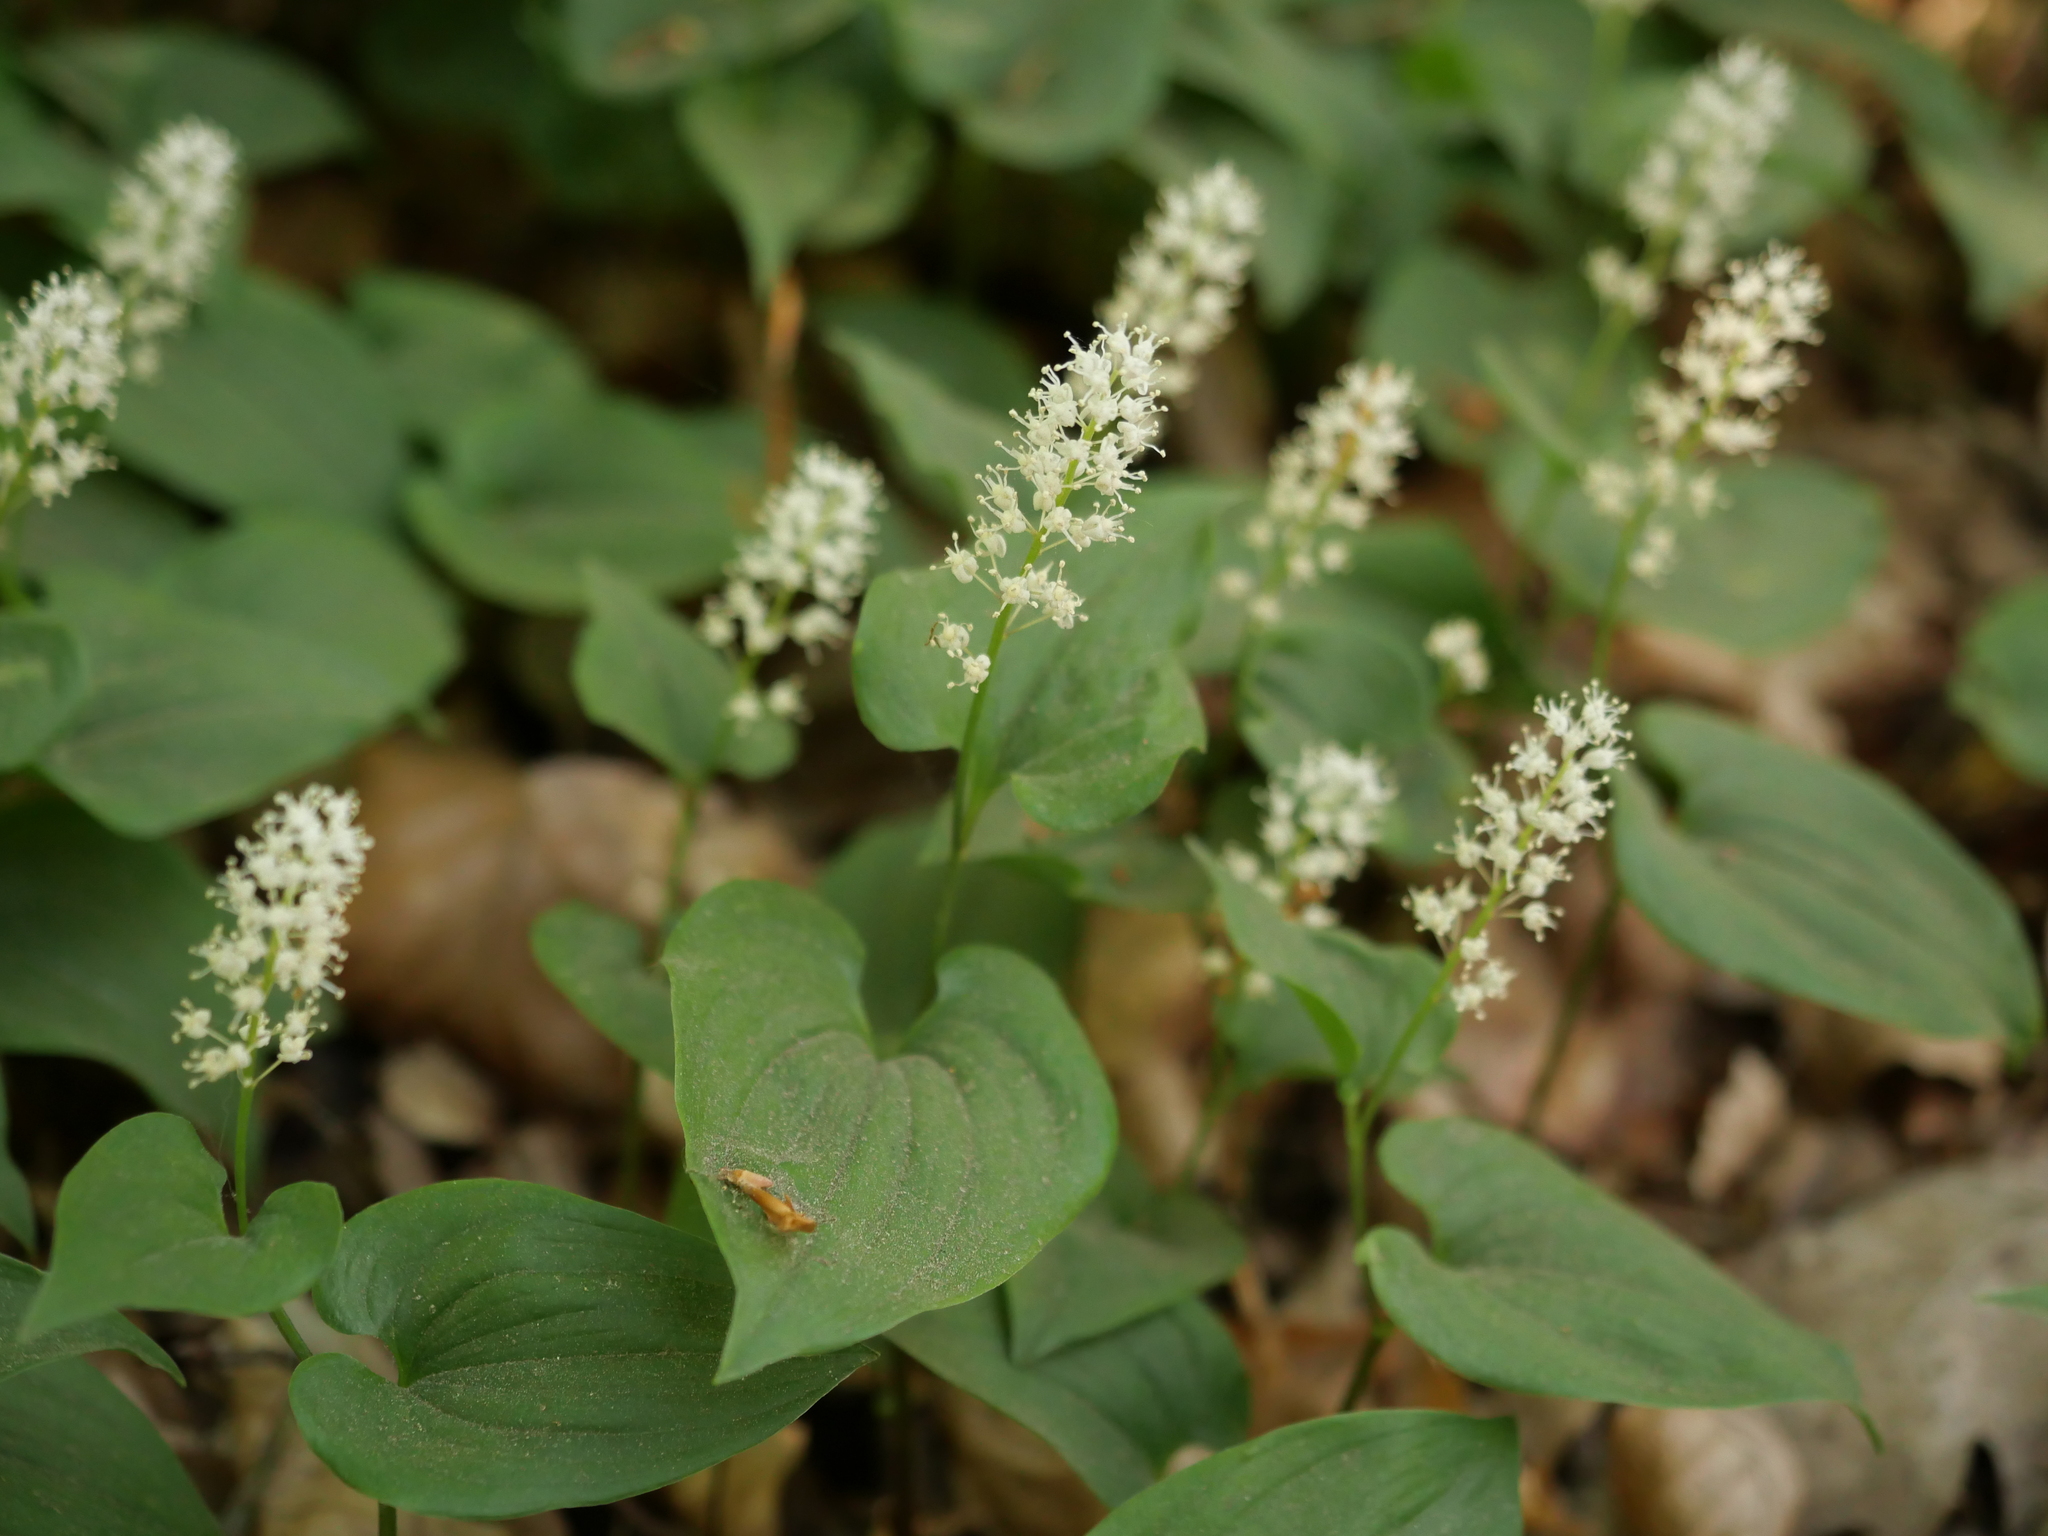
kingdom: Plantae
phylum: Tracheophyta
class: Liliopsida
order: Asparagales
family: Asparagaceae
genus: Maianthemum
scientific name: Maianthemum bifolium
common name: May lily
